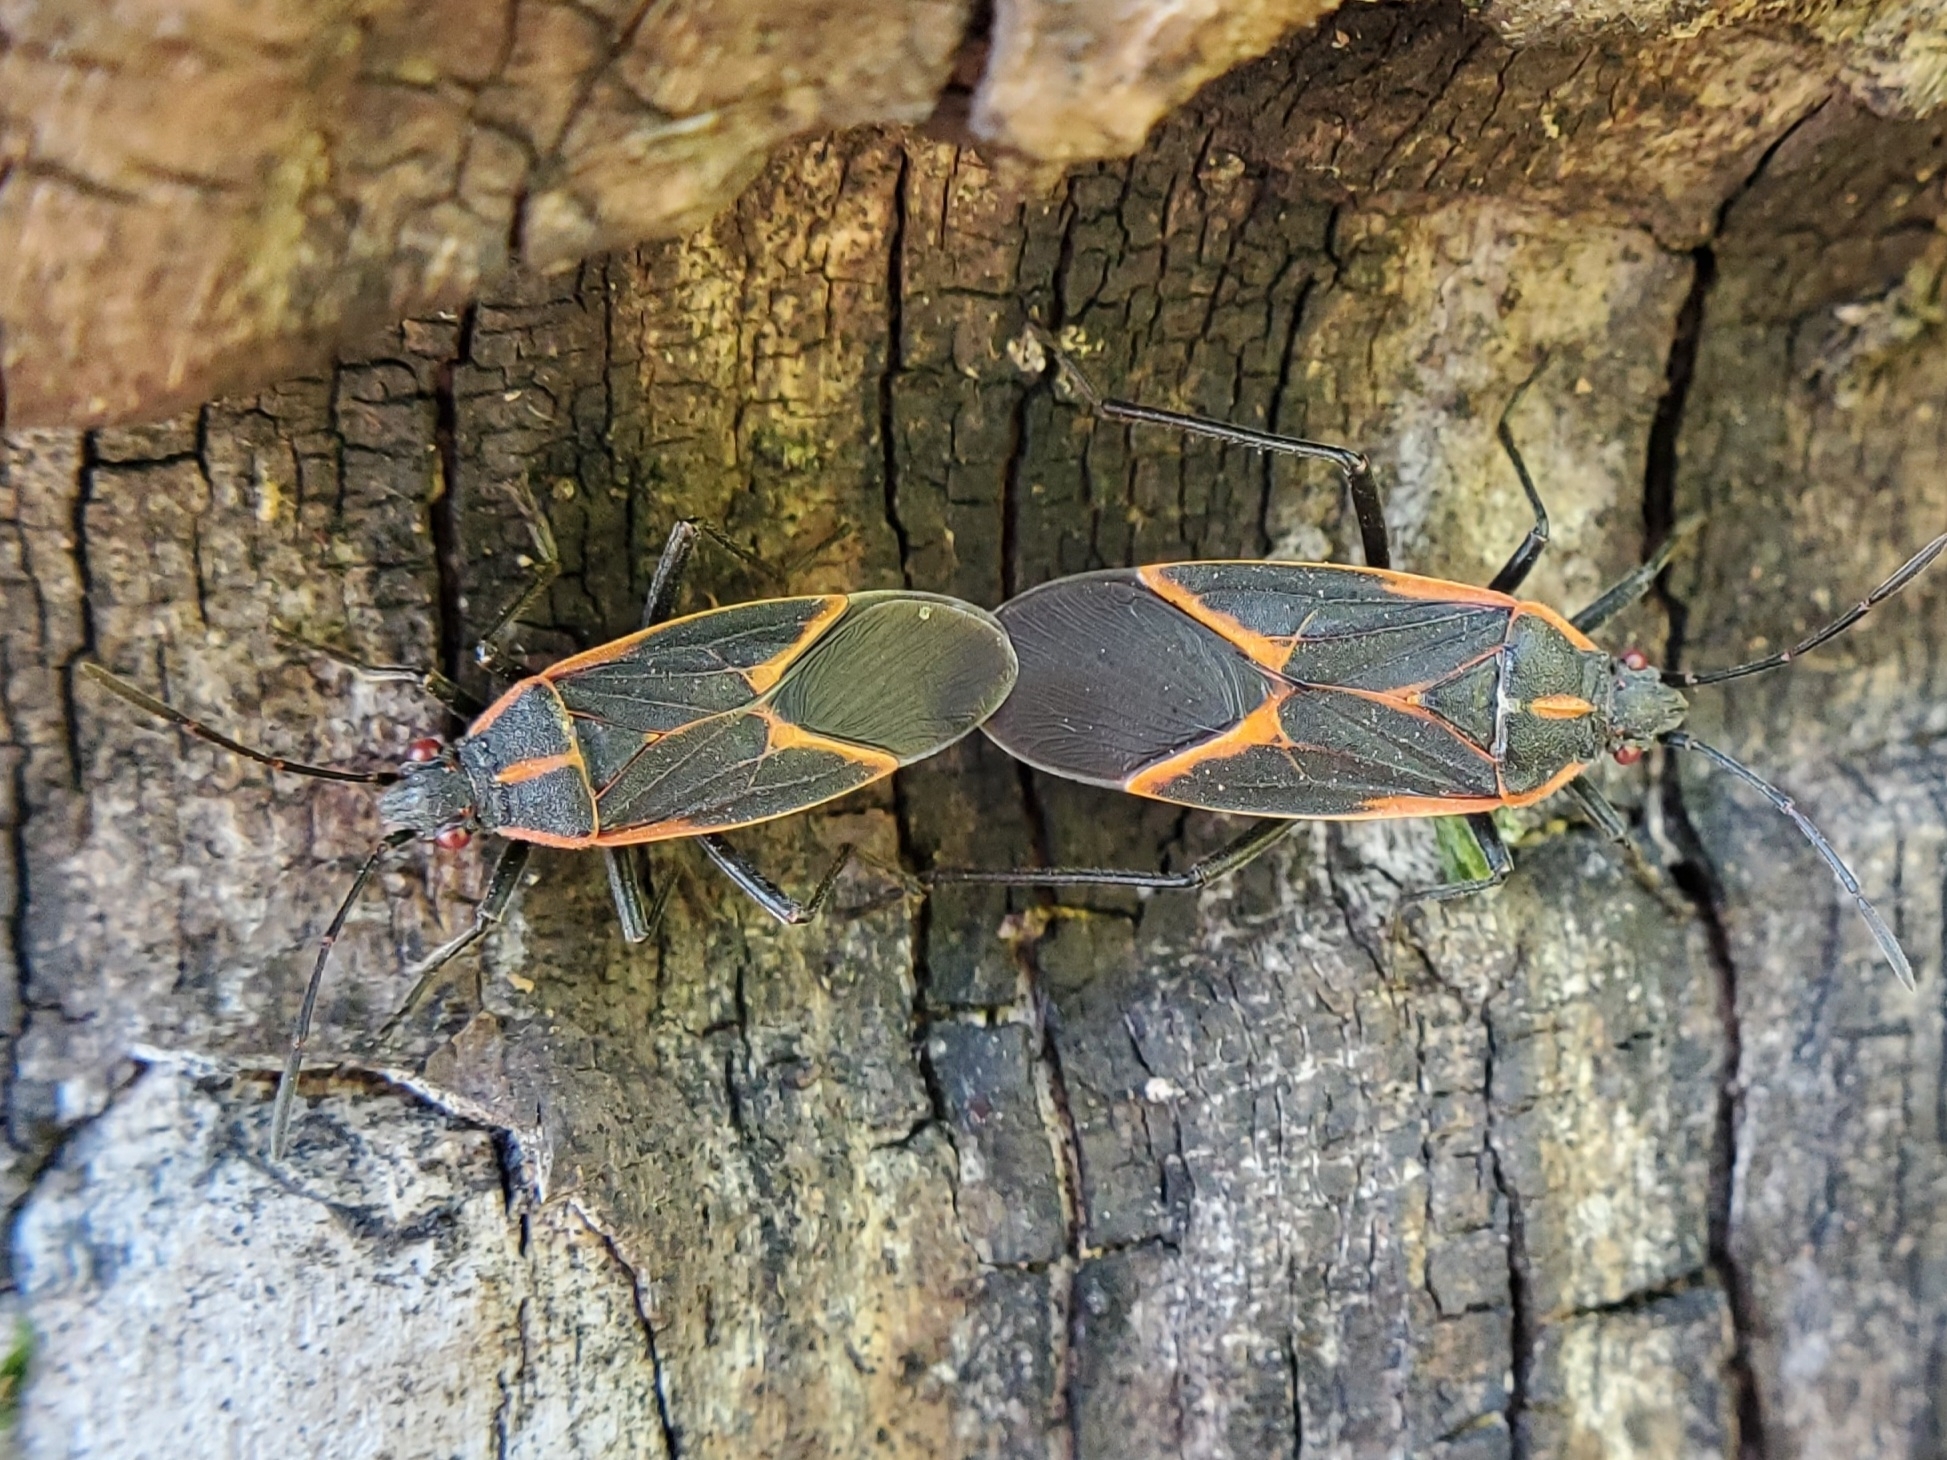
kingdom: Animalia
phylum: Arthropoda
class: Insecta
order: Hemiptera
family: Rhopalidae
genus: Boisea
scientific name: Boisea trivittata
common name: Boxelder bug
